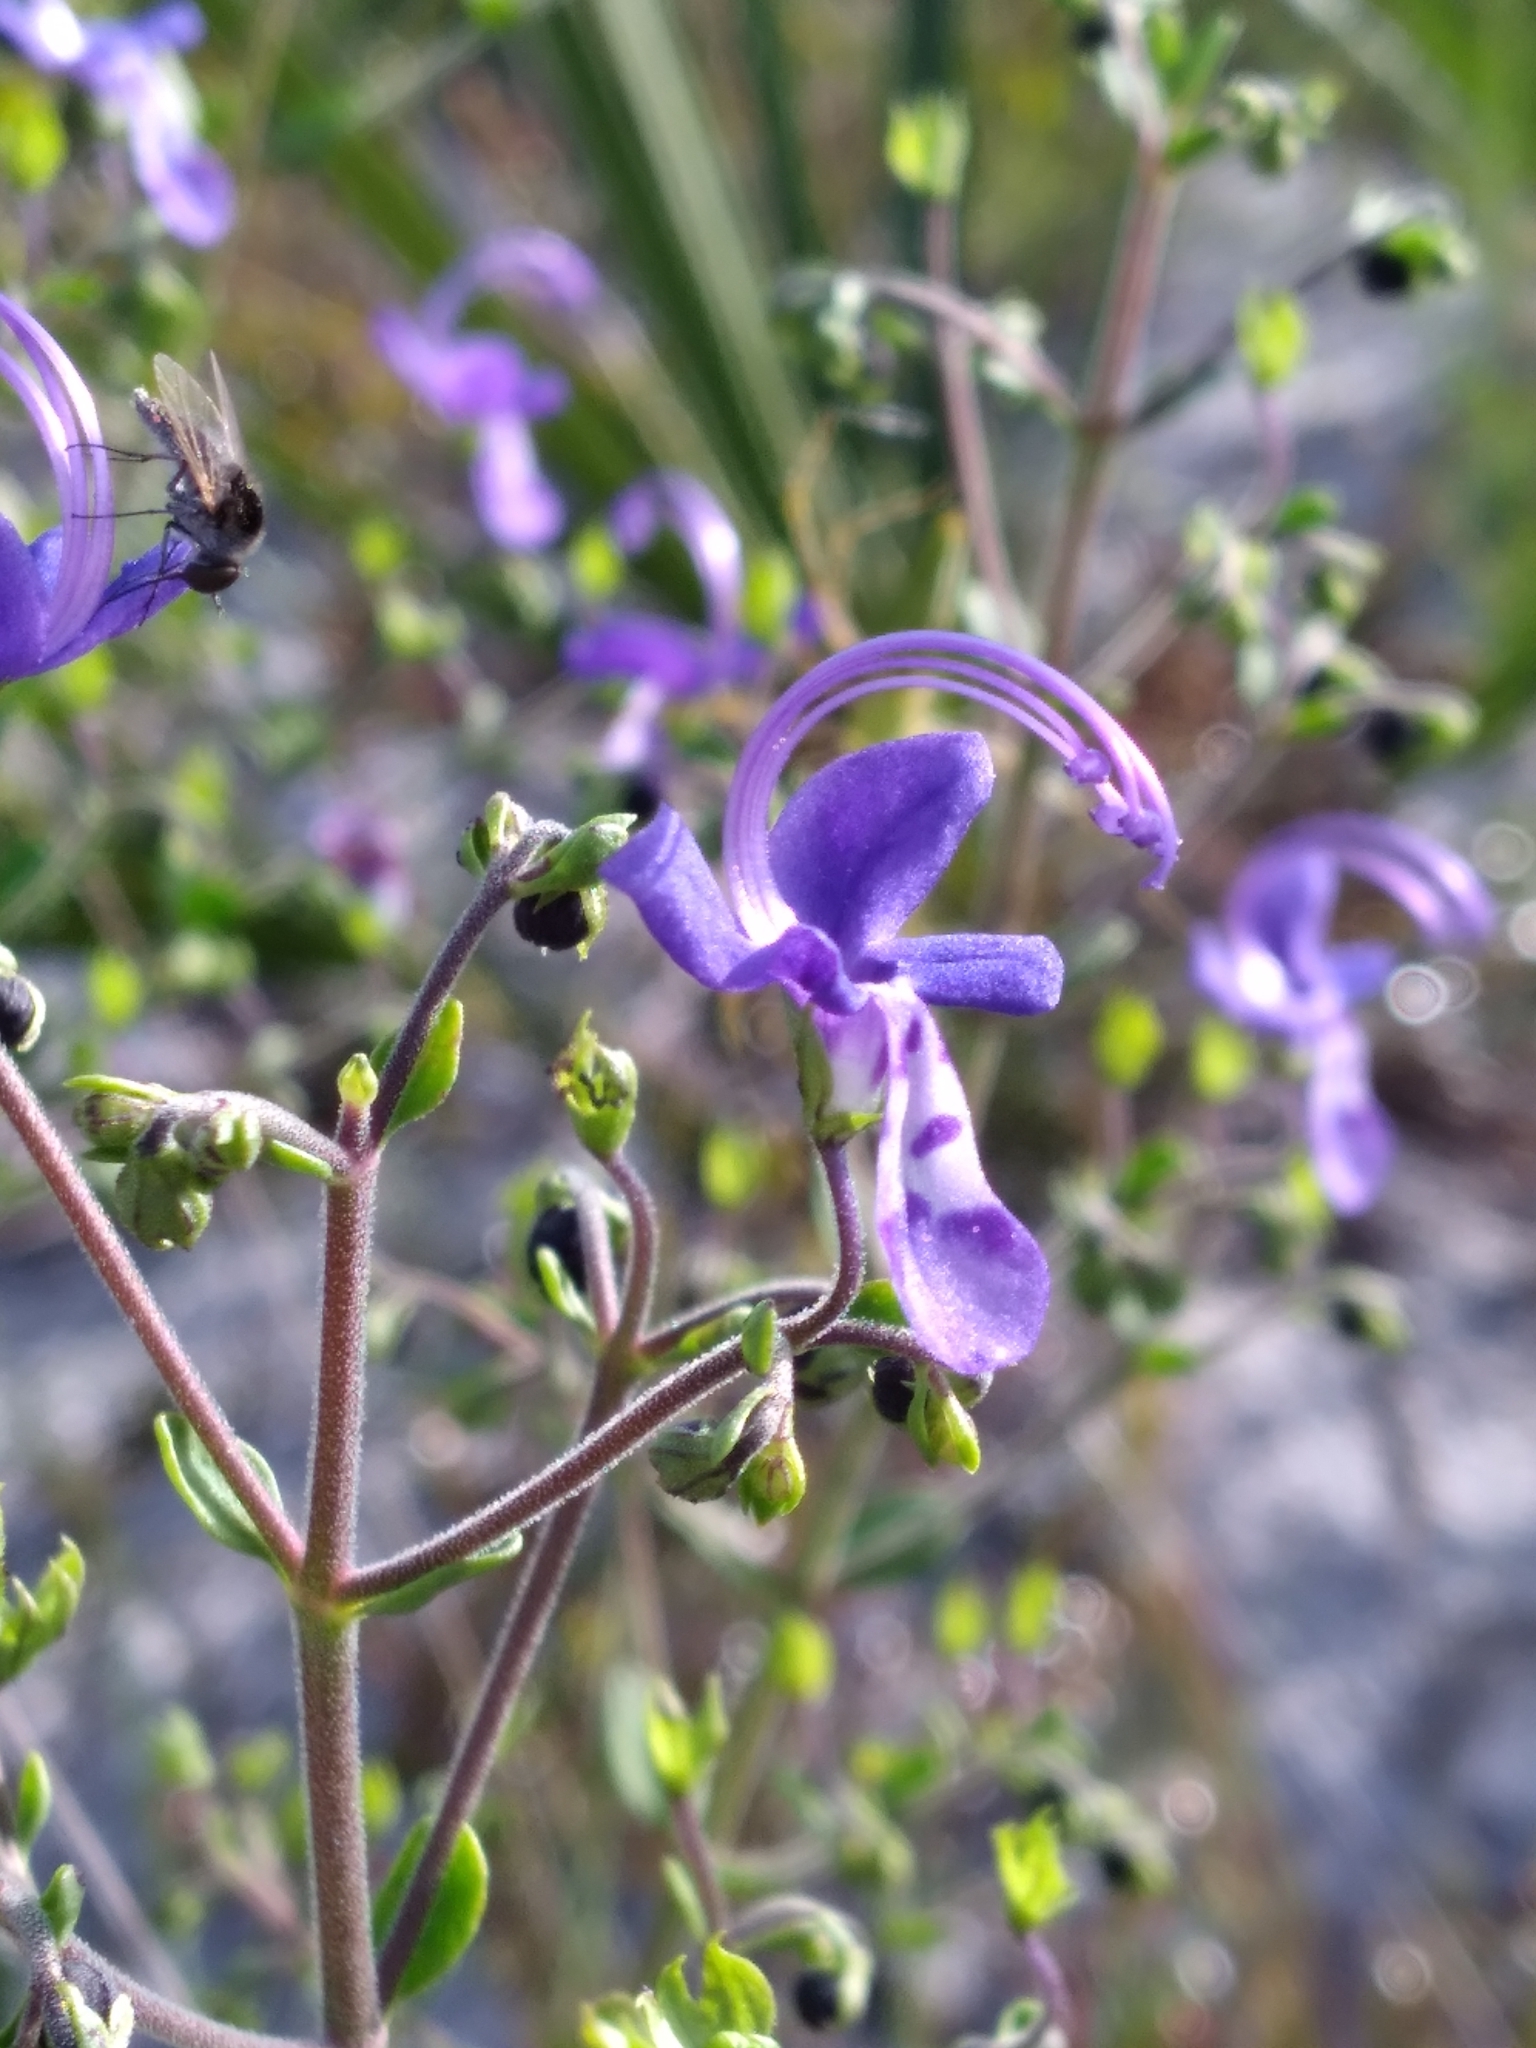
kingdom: Plantae
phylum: Tracheophyta
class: Magnoliopsida
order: Lamiales
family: Lamiaceae
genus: Trichostema
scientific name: Trichostema bridgesii-orzellii
